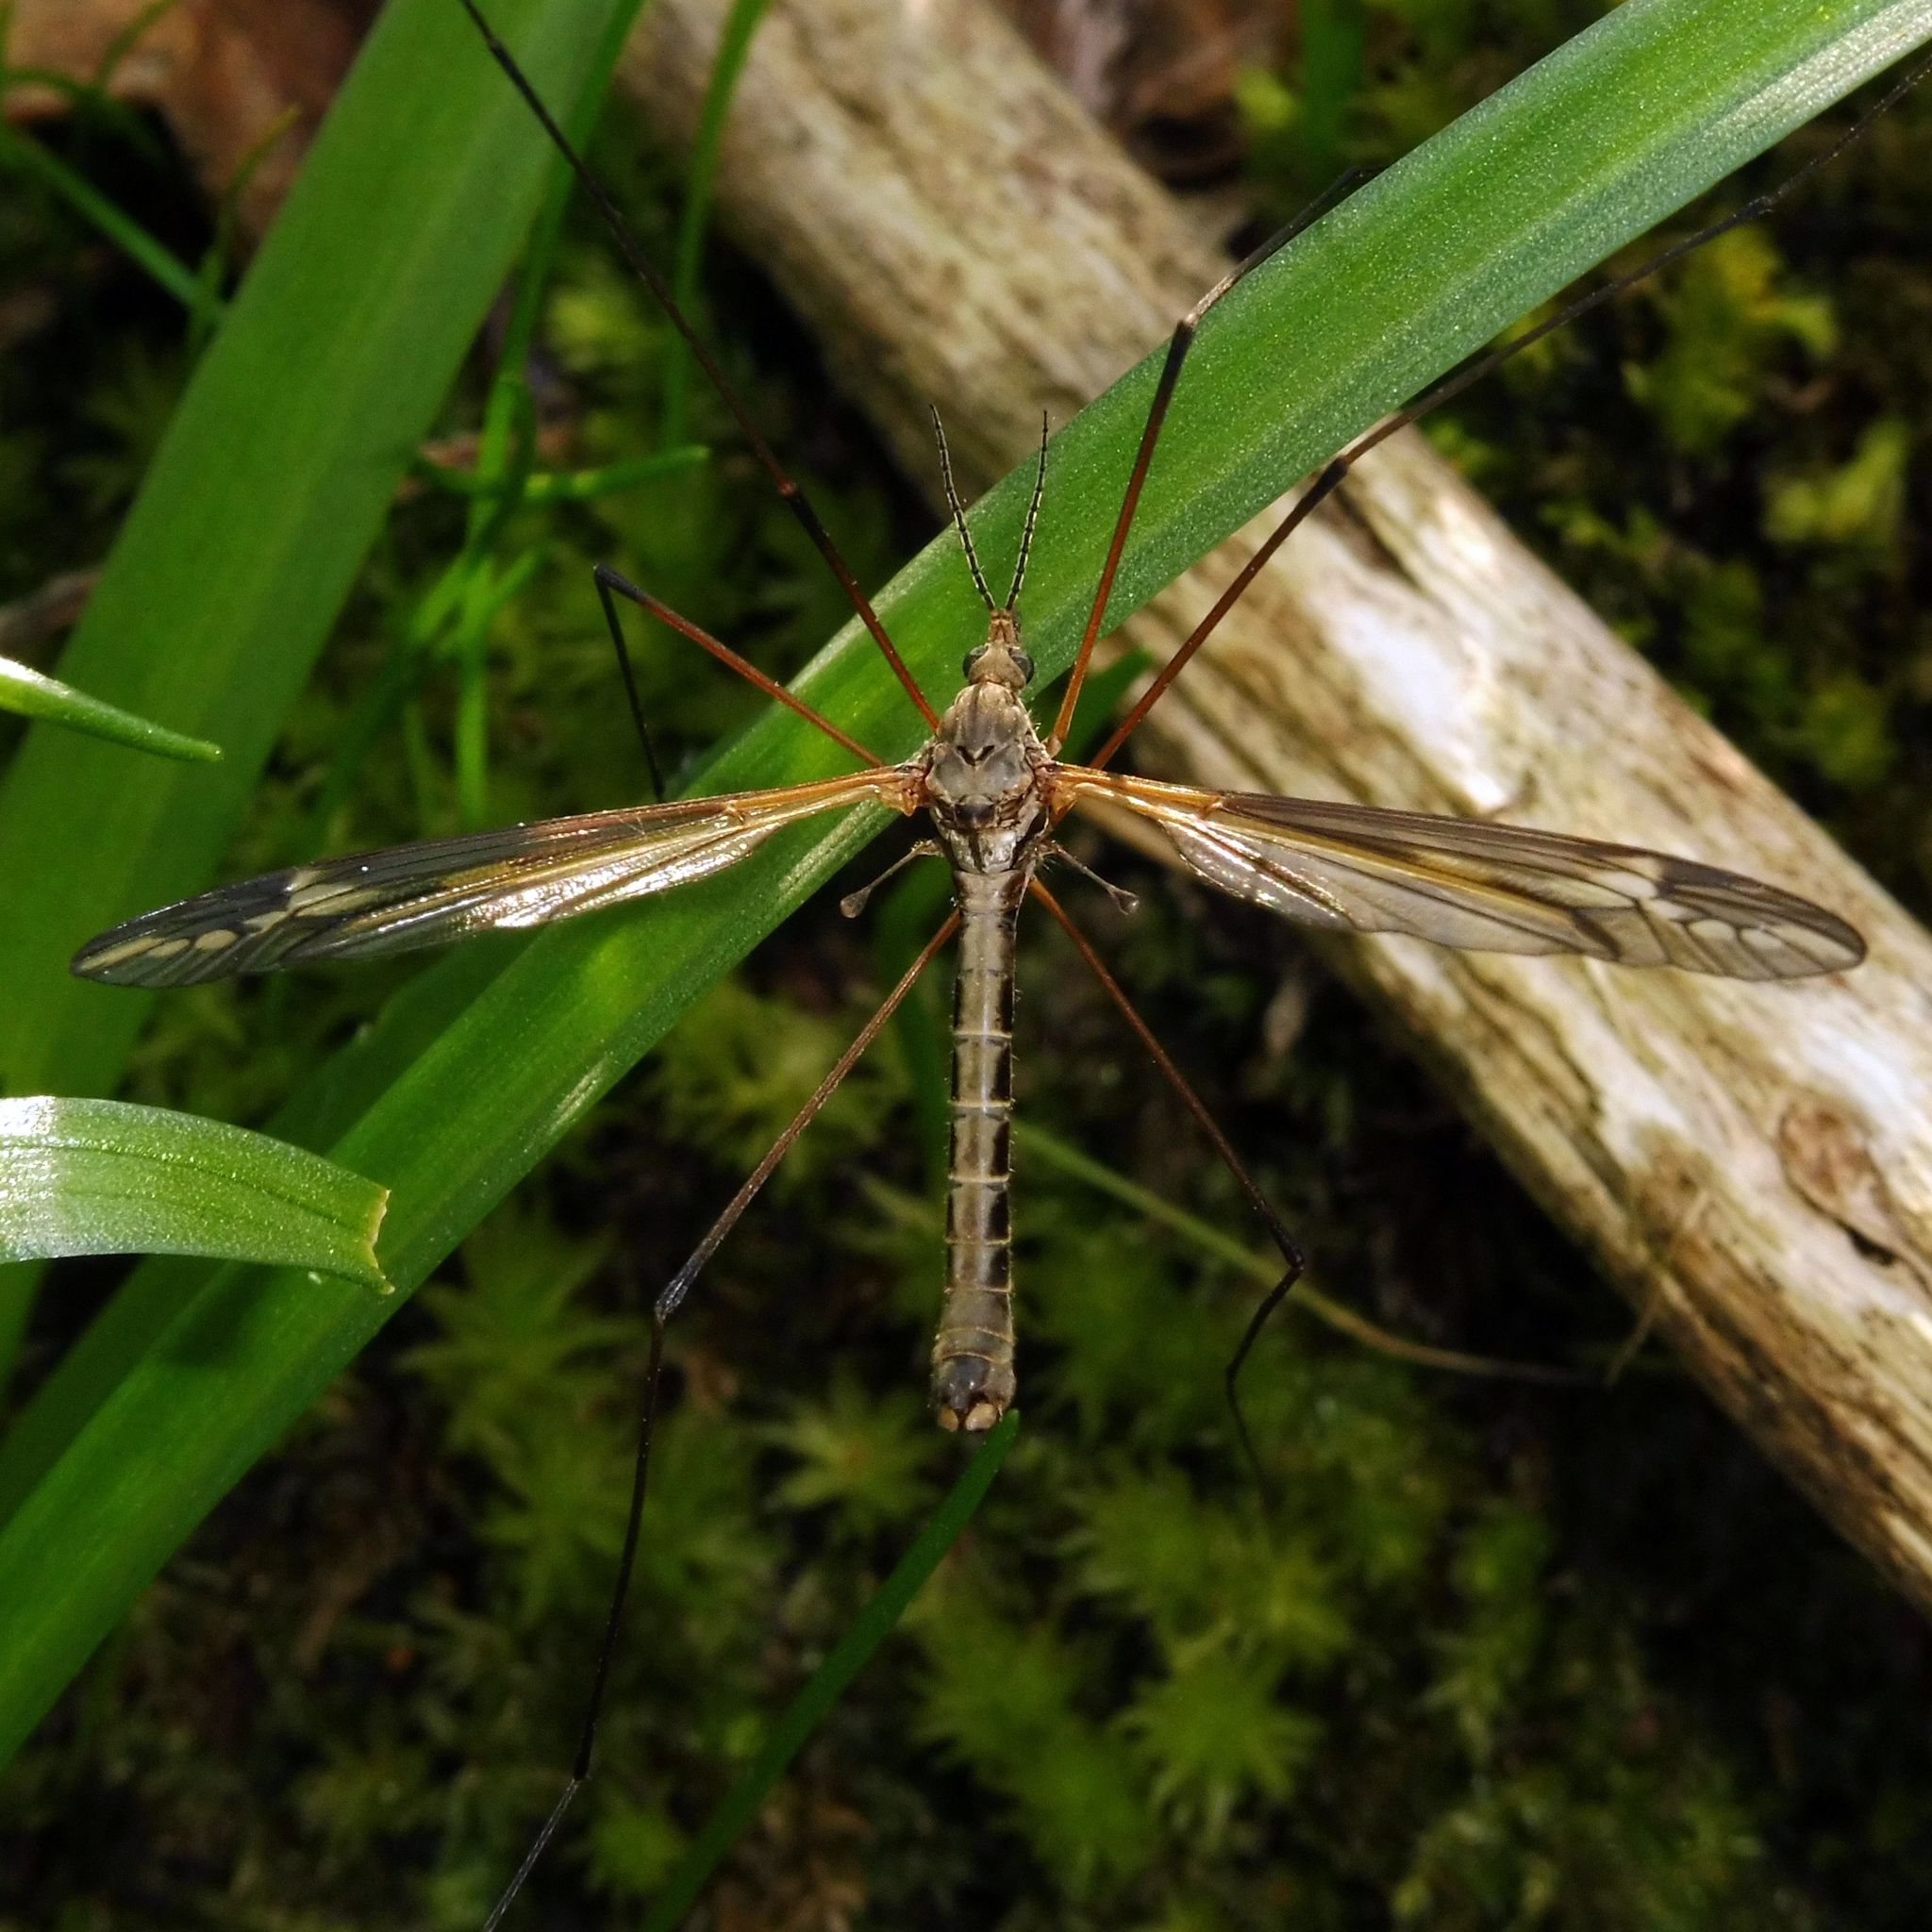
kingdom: Animalia
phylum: Arthropoda
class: Insecta
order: Diptera
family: Tipulidae
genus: Tipula
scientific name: Tipula vittata
